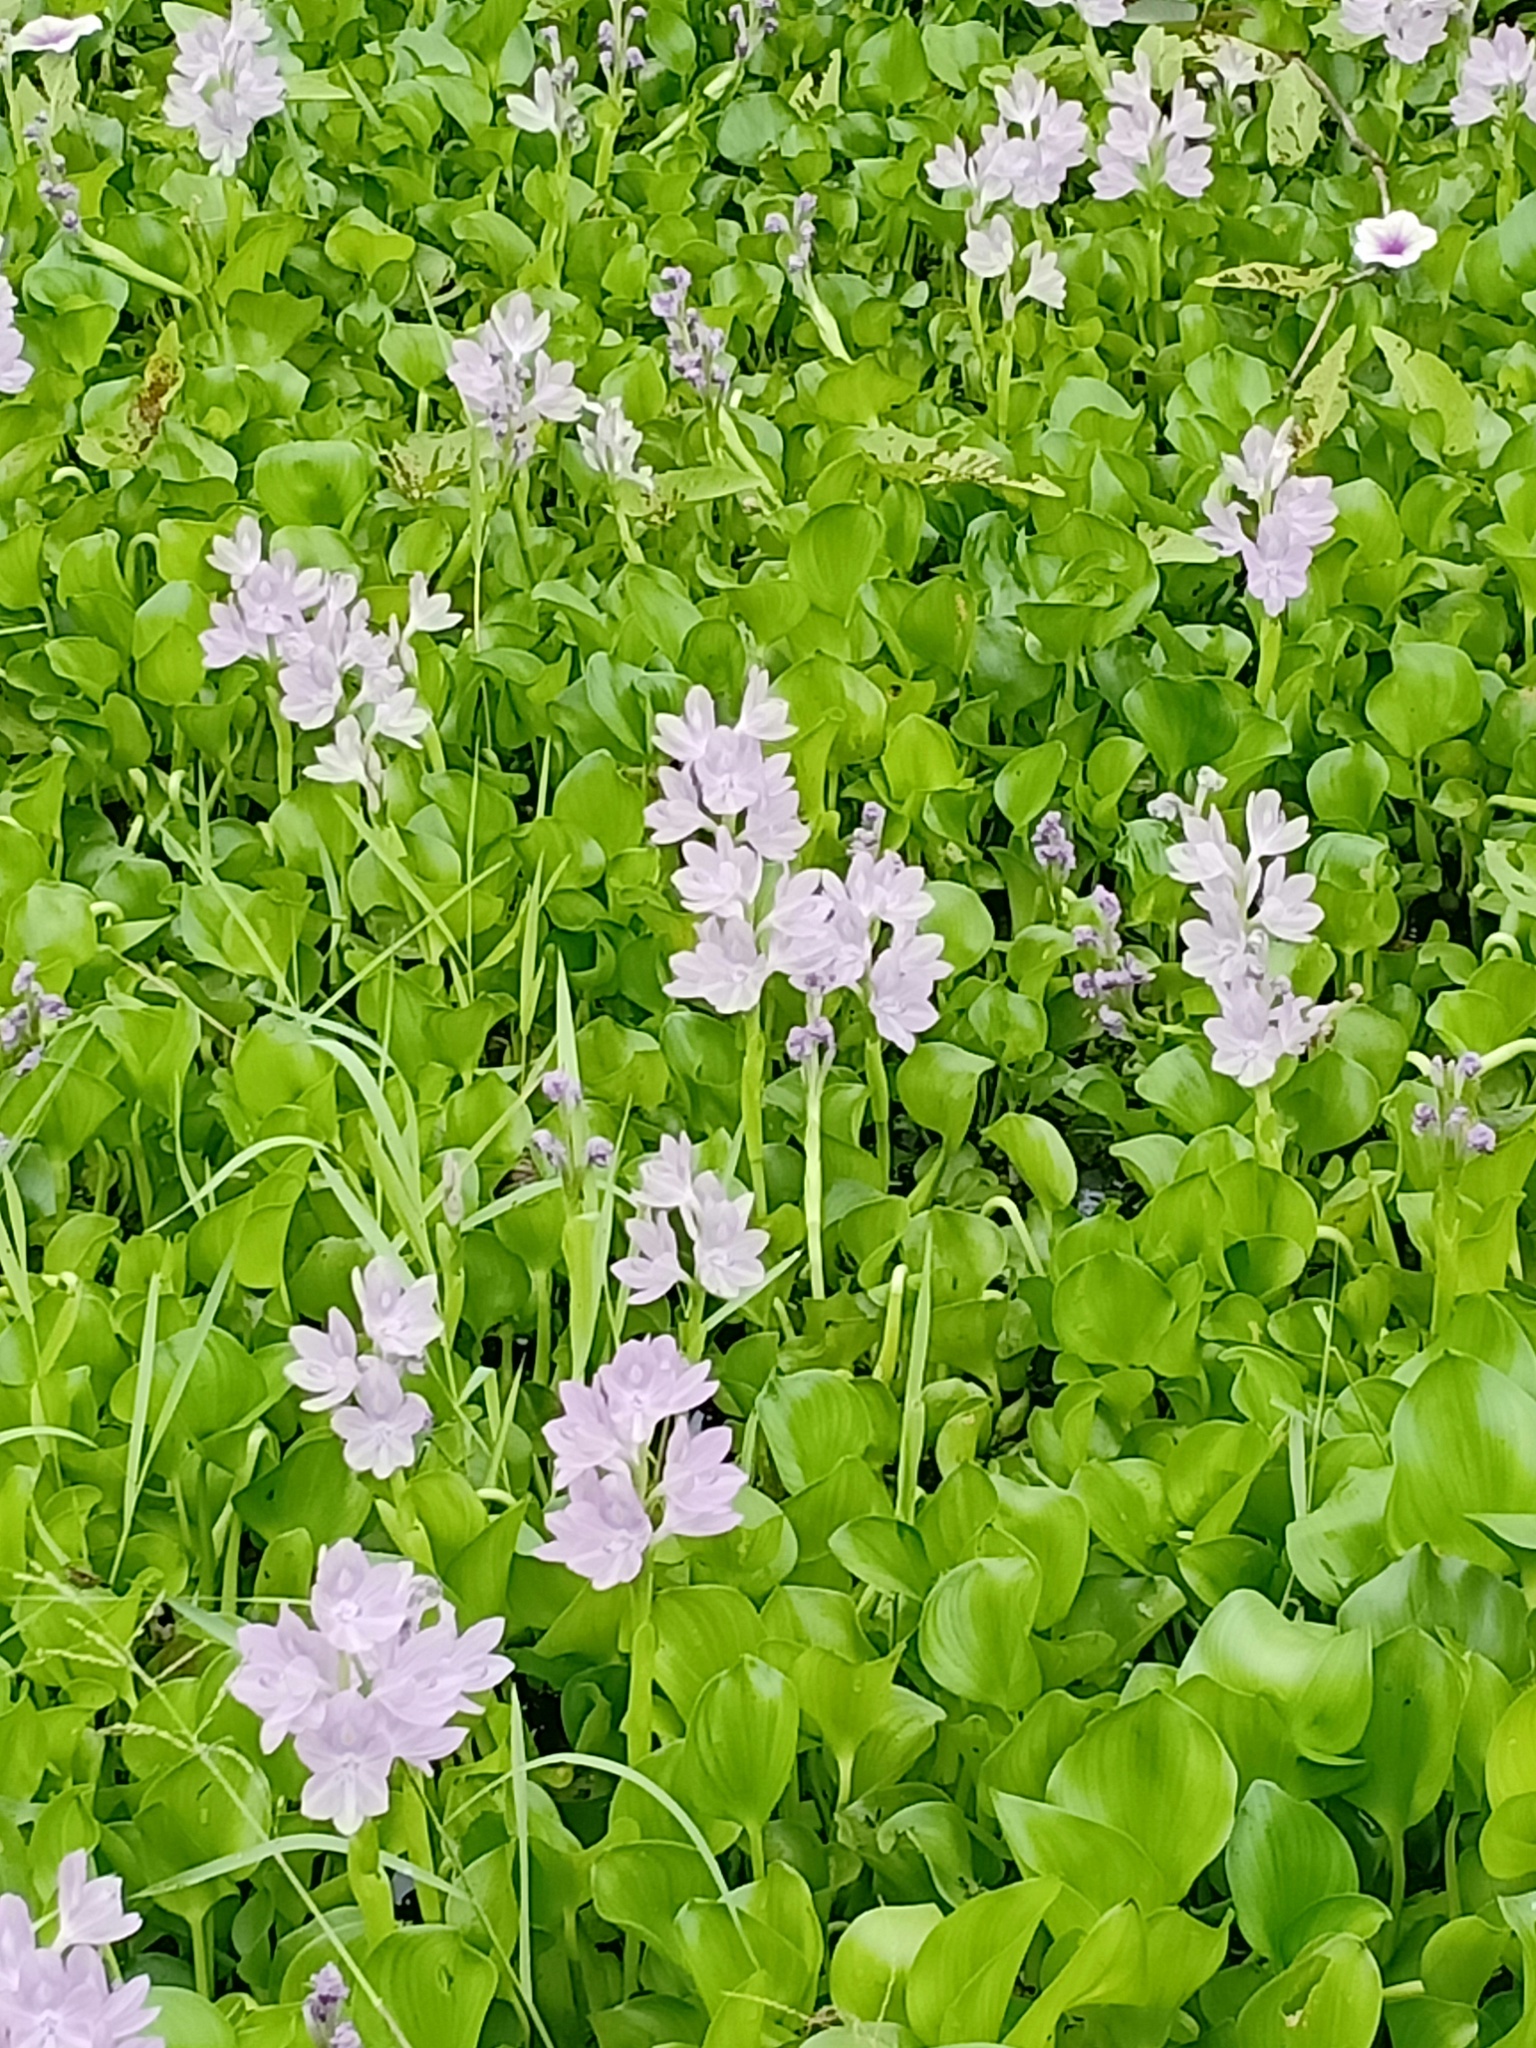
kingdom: Plantae
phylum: Tracheophyta
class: Liliopsida
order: Commelinales
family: Pontederiaceae
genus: Pontederia
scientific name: Pontederia crassipes
